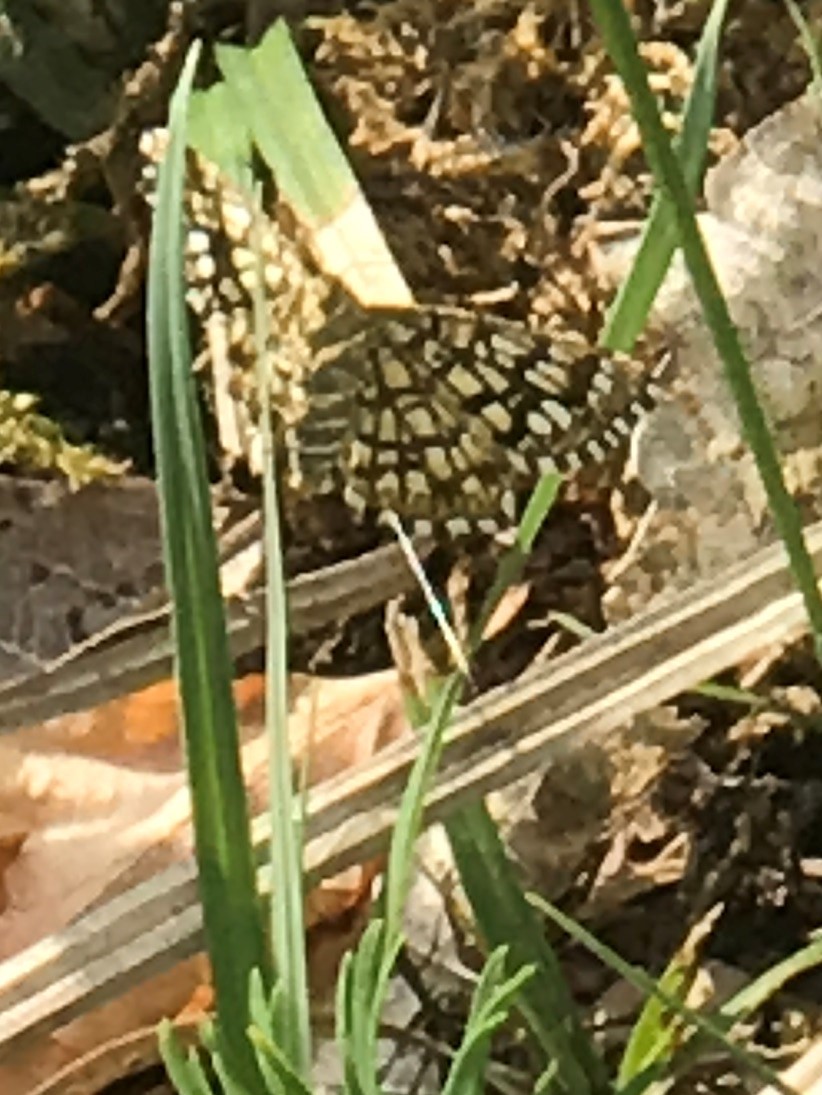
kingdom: Animalia
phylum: Arthropoda
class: Insecta
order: Lepidoptera
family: Geometridae
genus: Chiasmia
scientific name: Chiasmia clathrata
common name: Latticed heath
